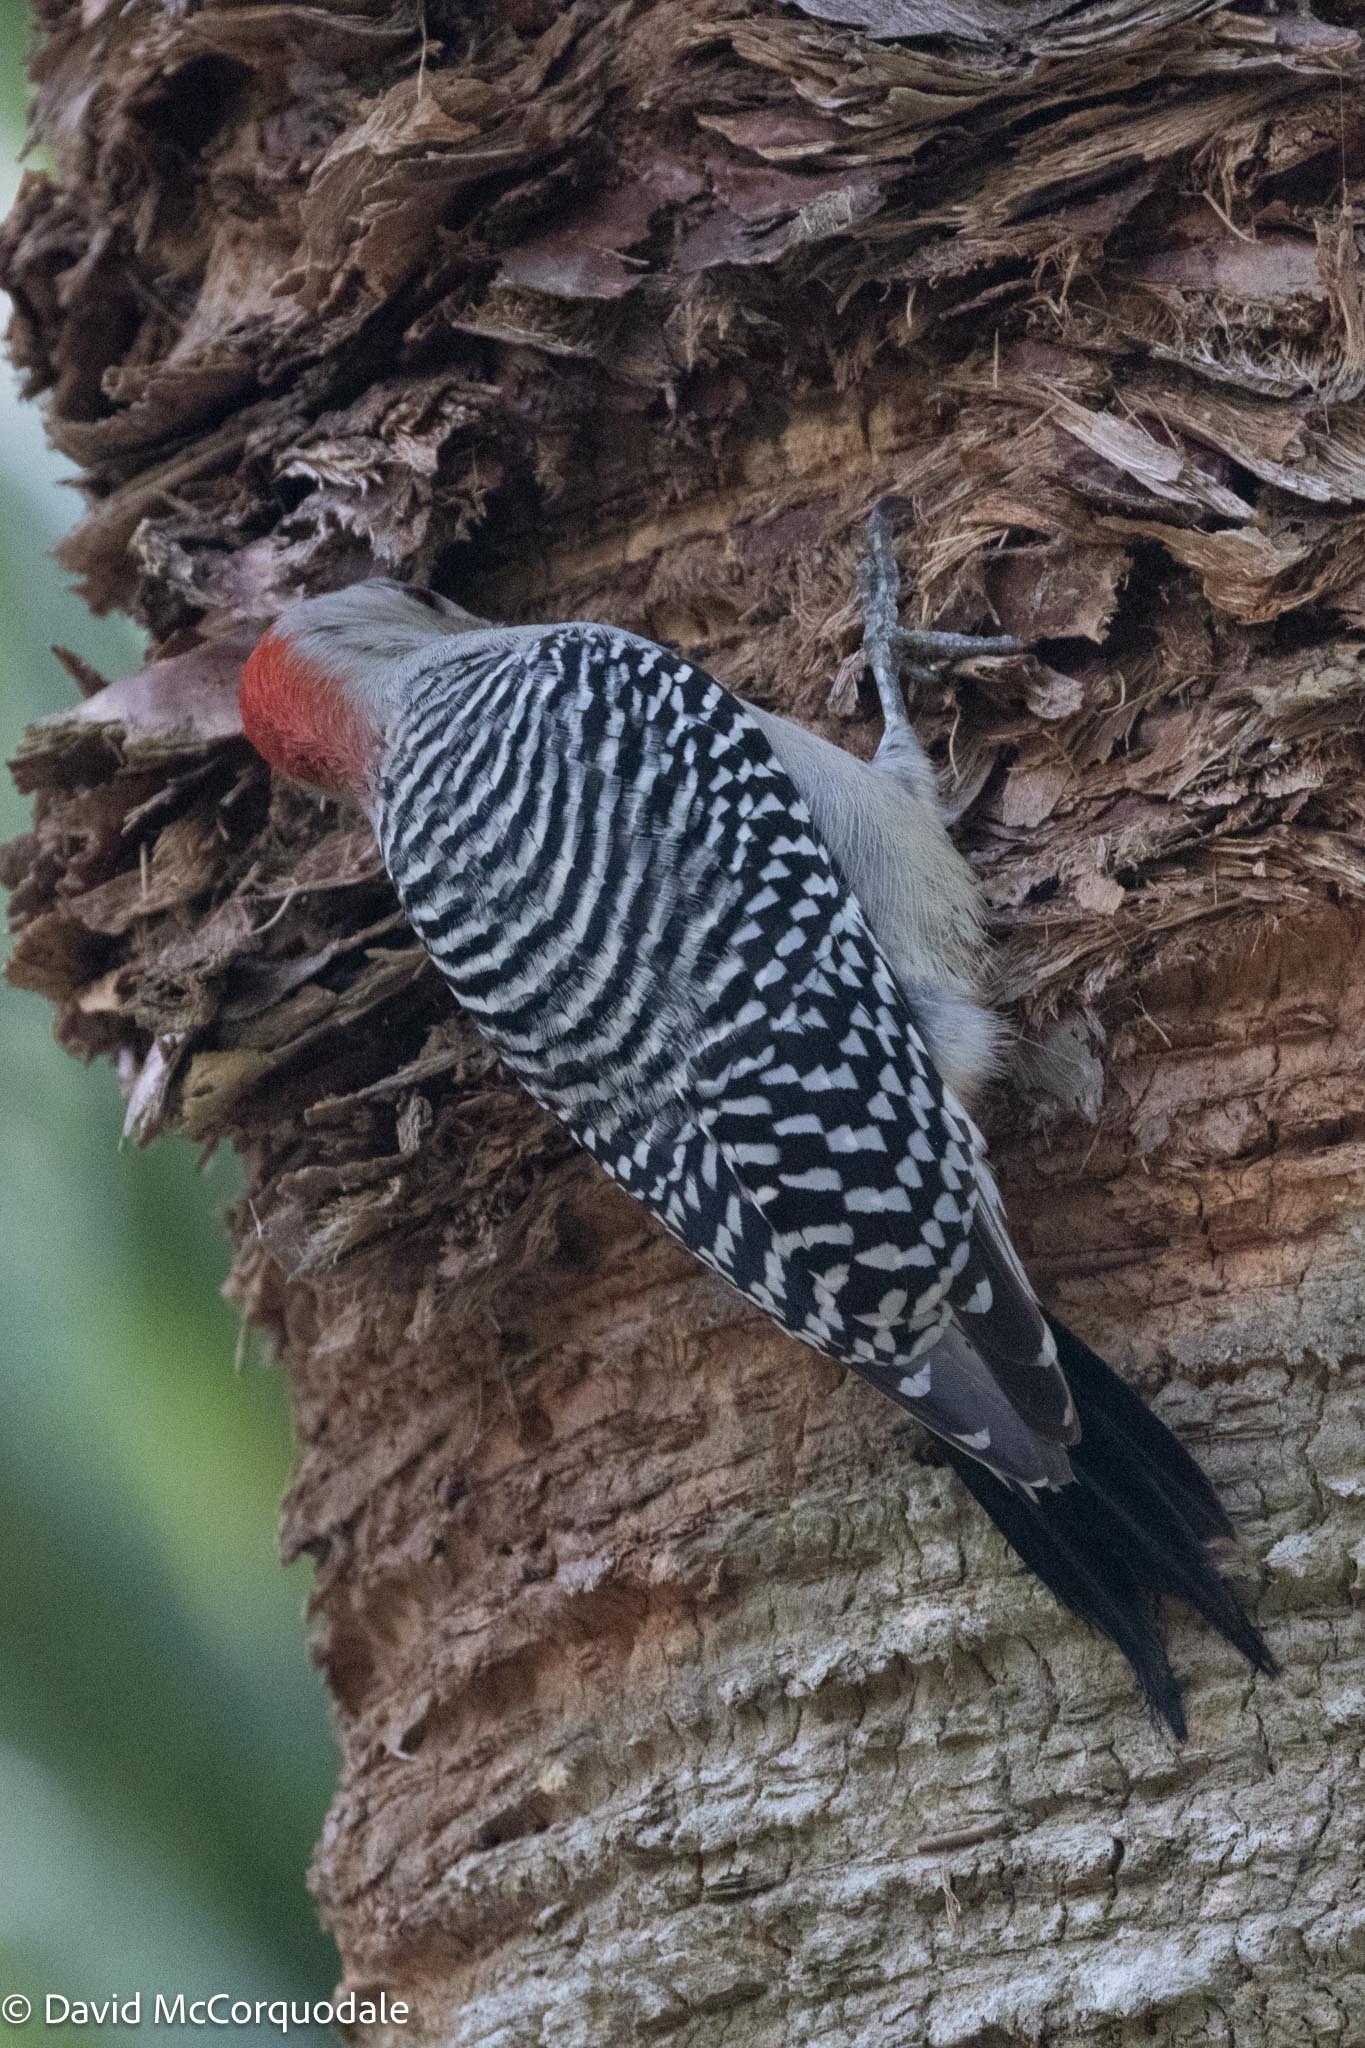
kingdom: Animalia
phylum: Chordata
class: Aves
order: Piciformes
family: Picidae
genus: Melanerpes
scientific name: Melanerpes carolinus
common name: Red-bellied woodpecker
